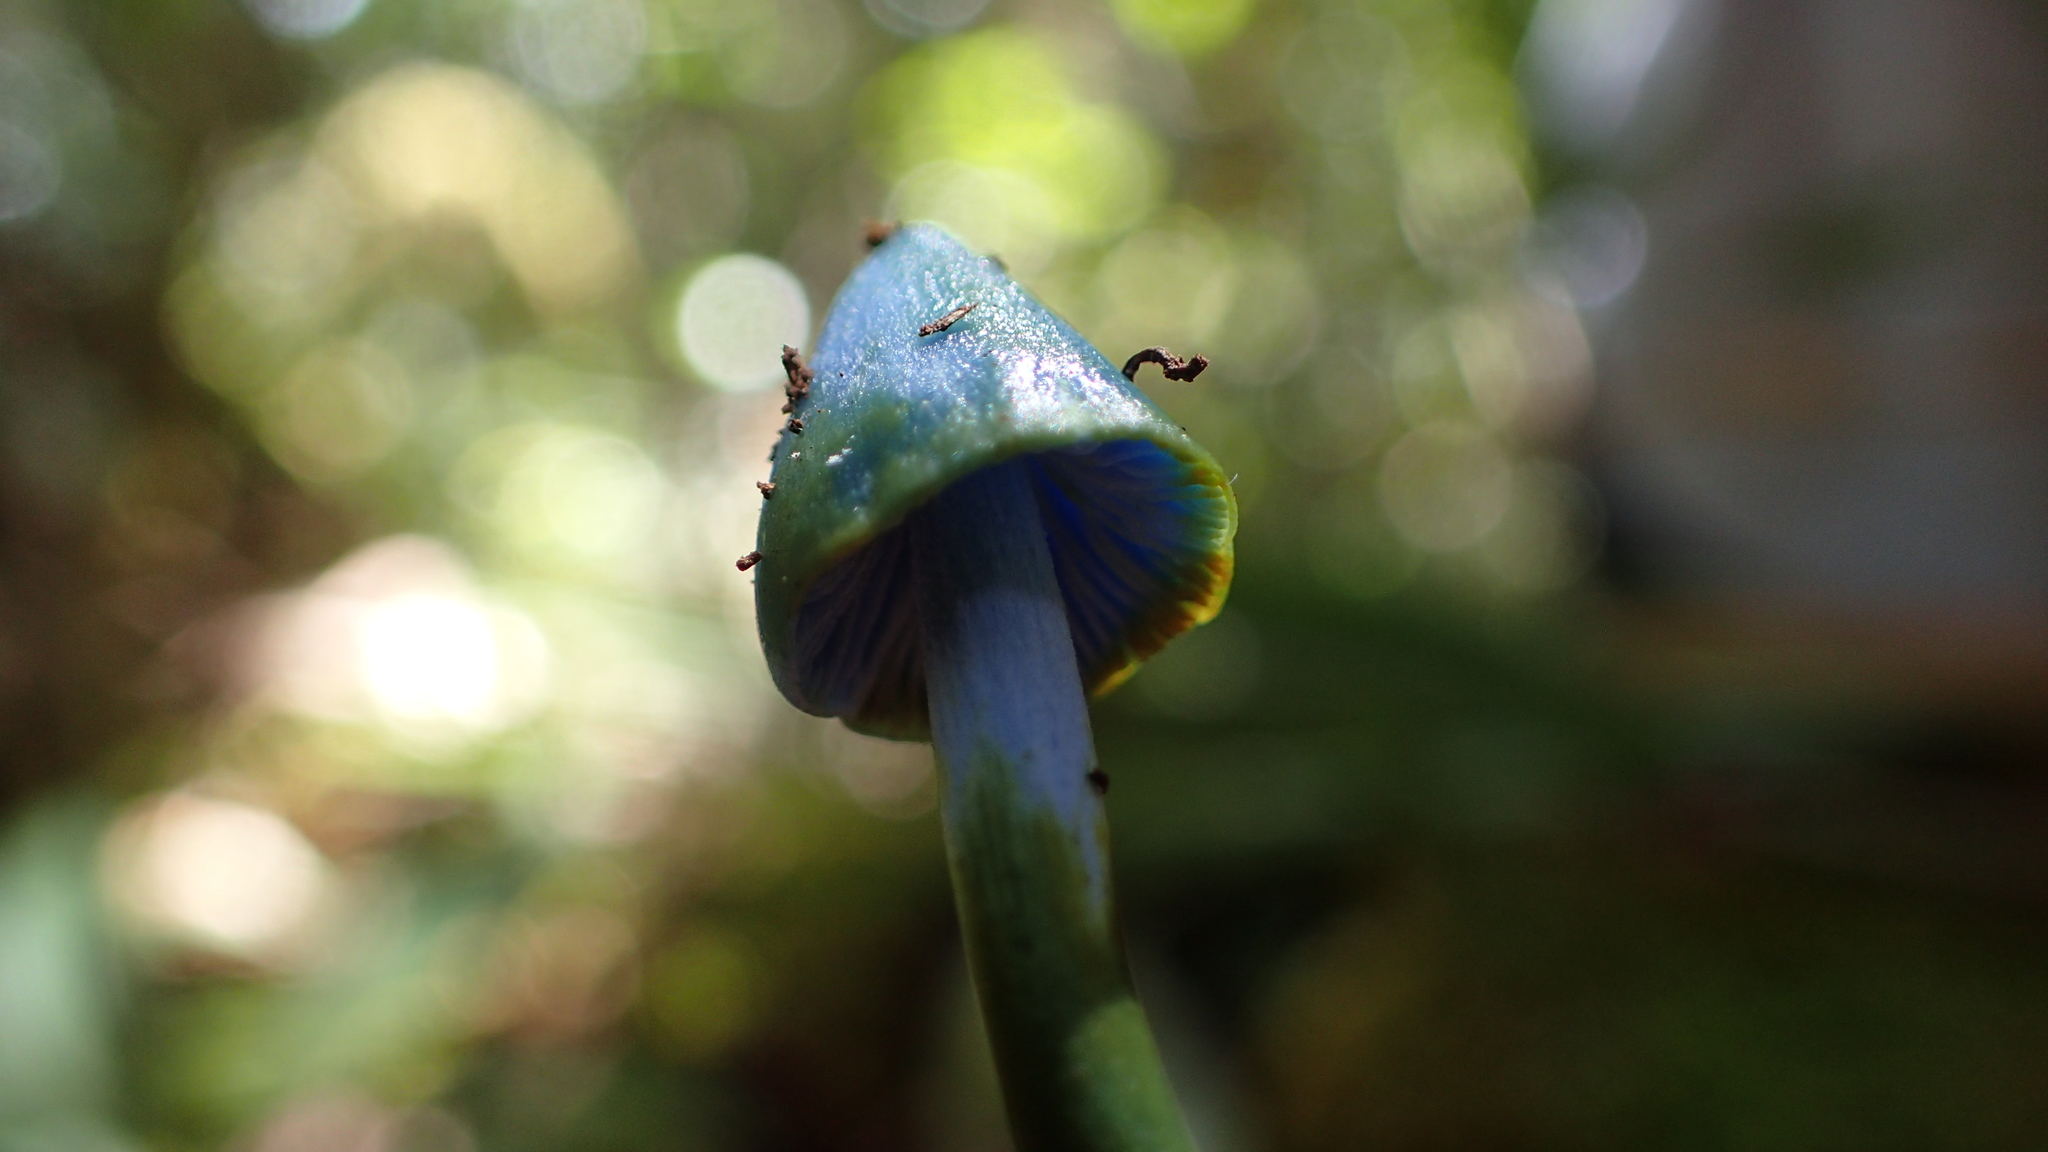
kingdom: Fungi
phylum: Basidiomycota
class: Agaricomycetes
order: Agaricales
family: Entolomataceae
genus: Entoloma
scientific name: Entoloma holocyaneum
